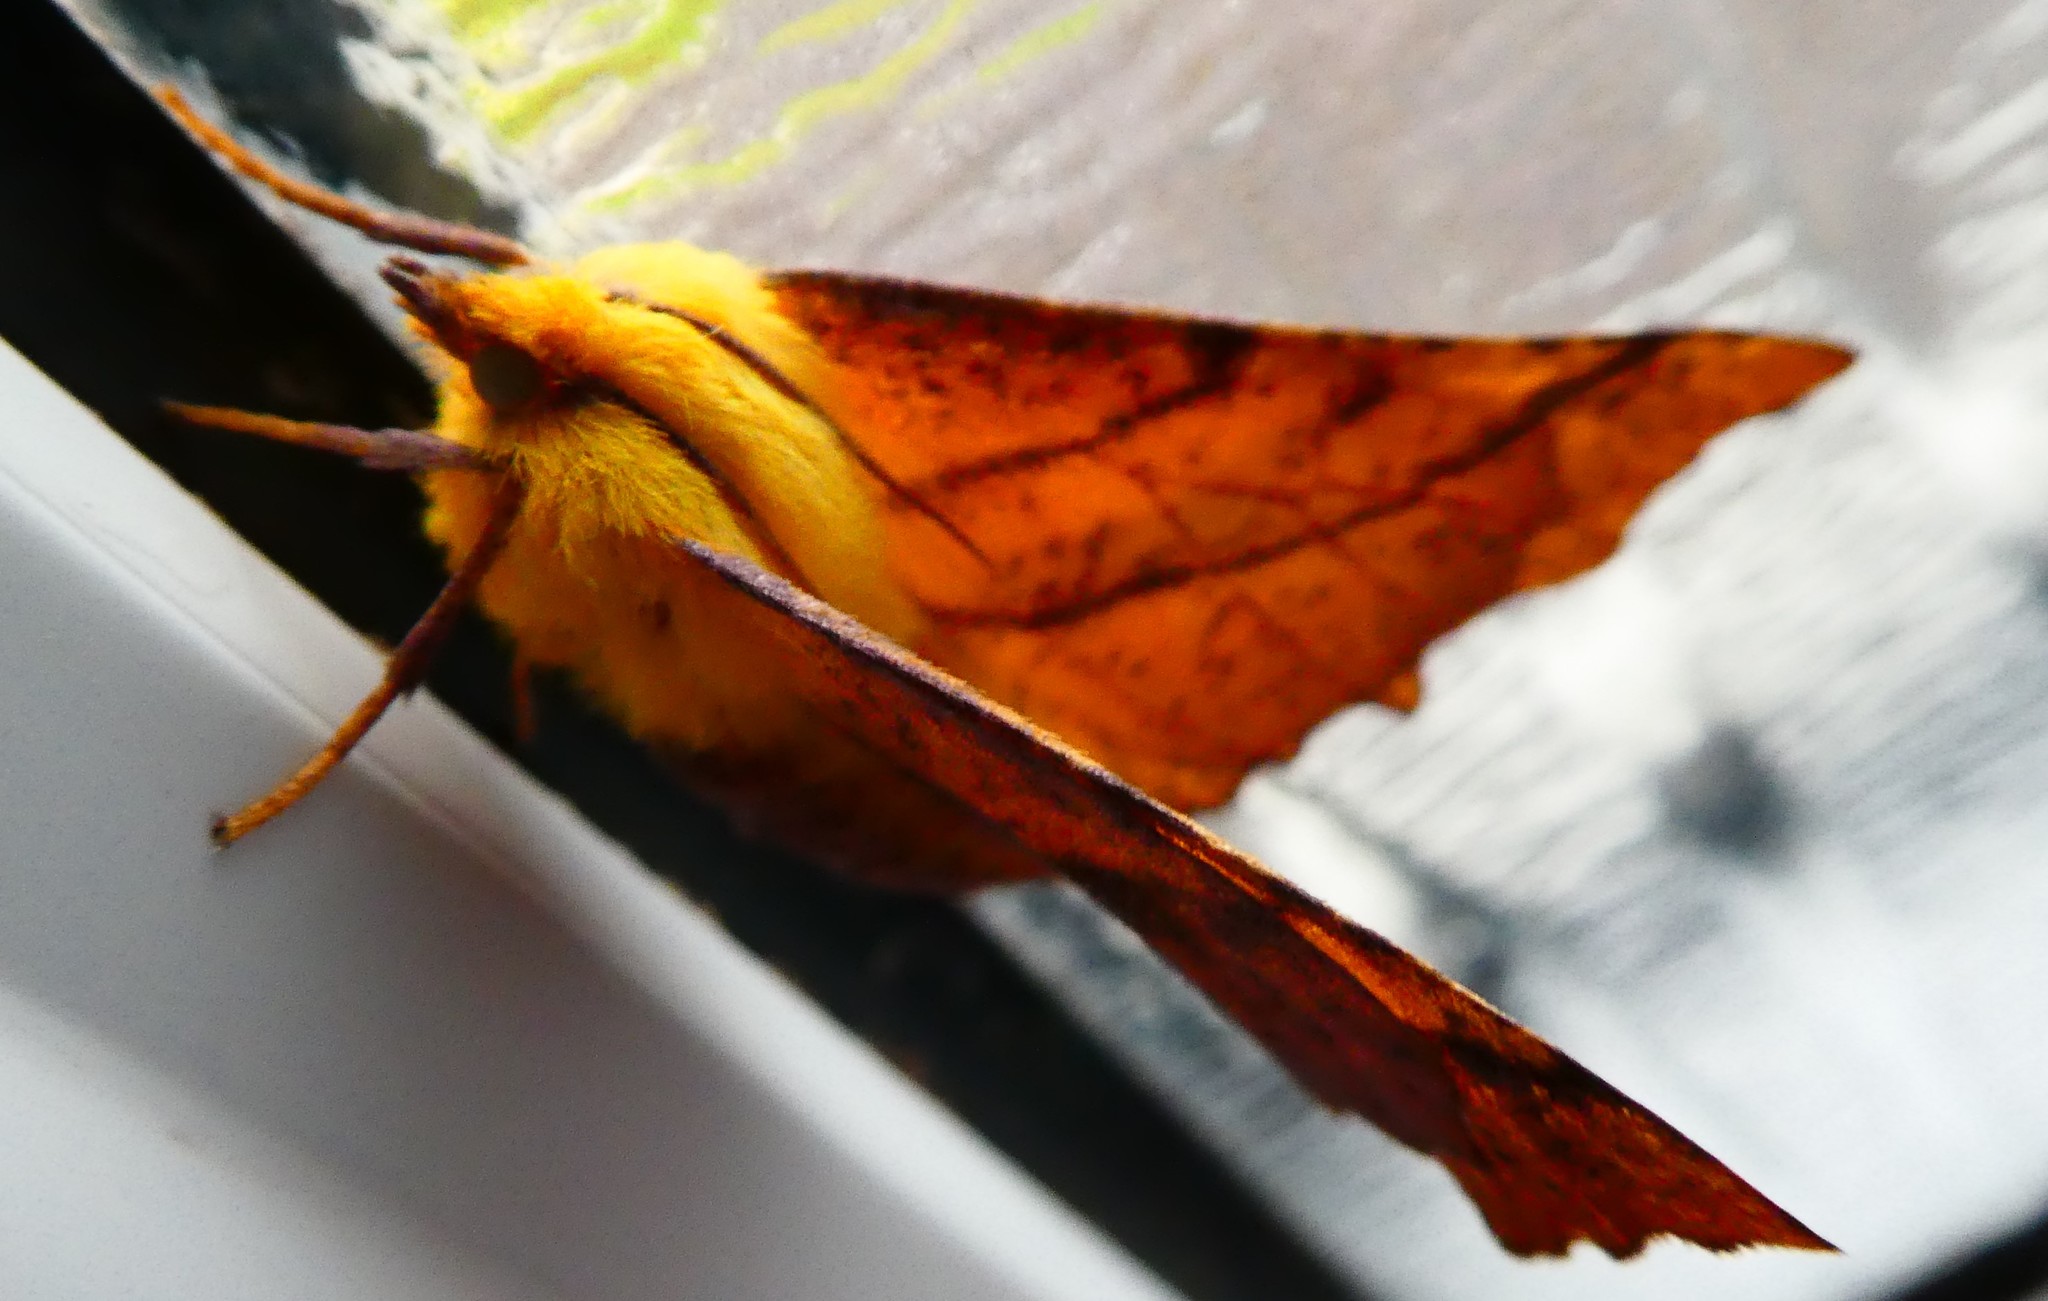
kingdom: Animalia
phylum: Arthropoda
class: Insecta
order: Lepidoptera
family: Geometridae
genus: Ennomos
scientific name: Ennomos alniaria
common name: Canary-shouldered thorn
